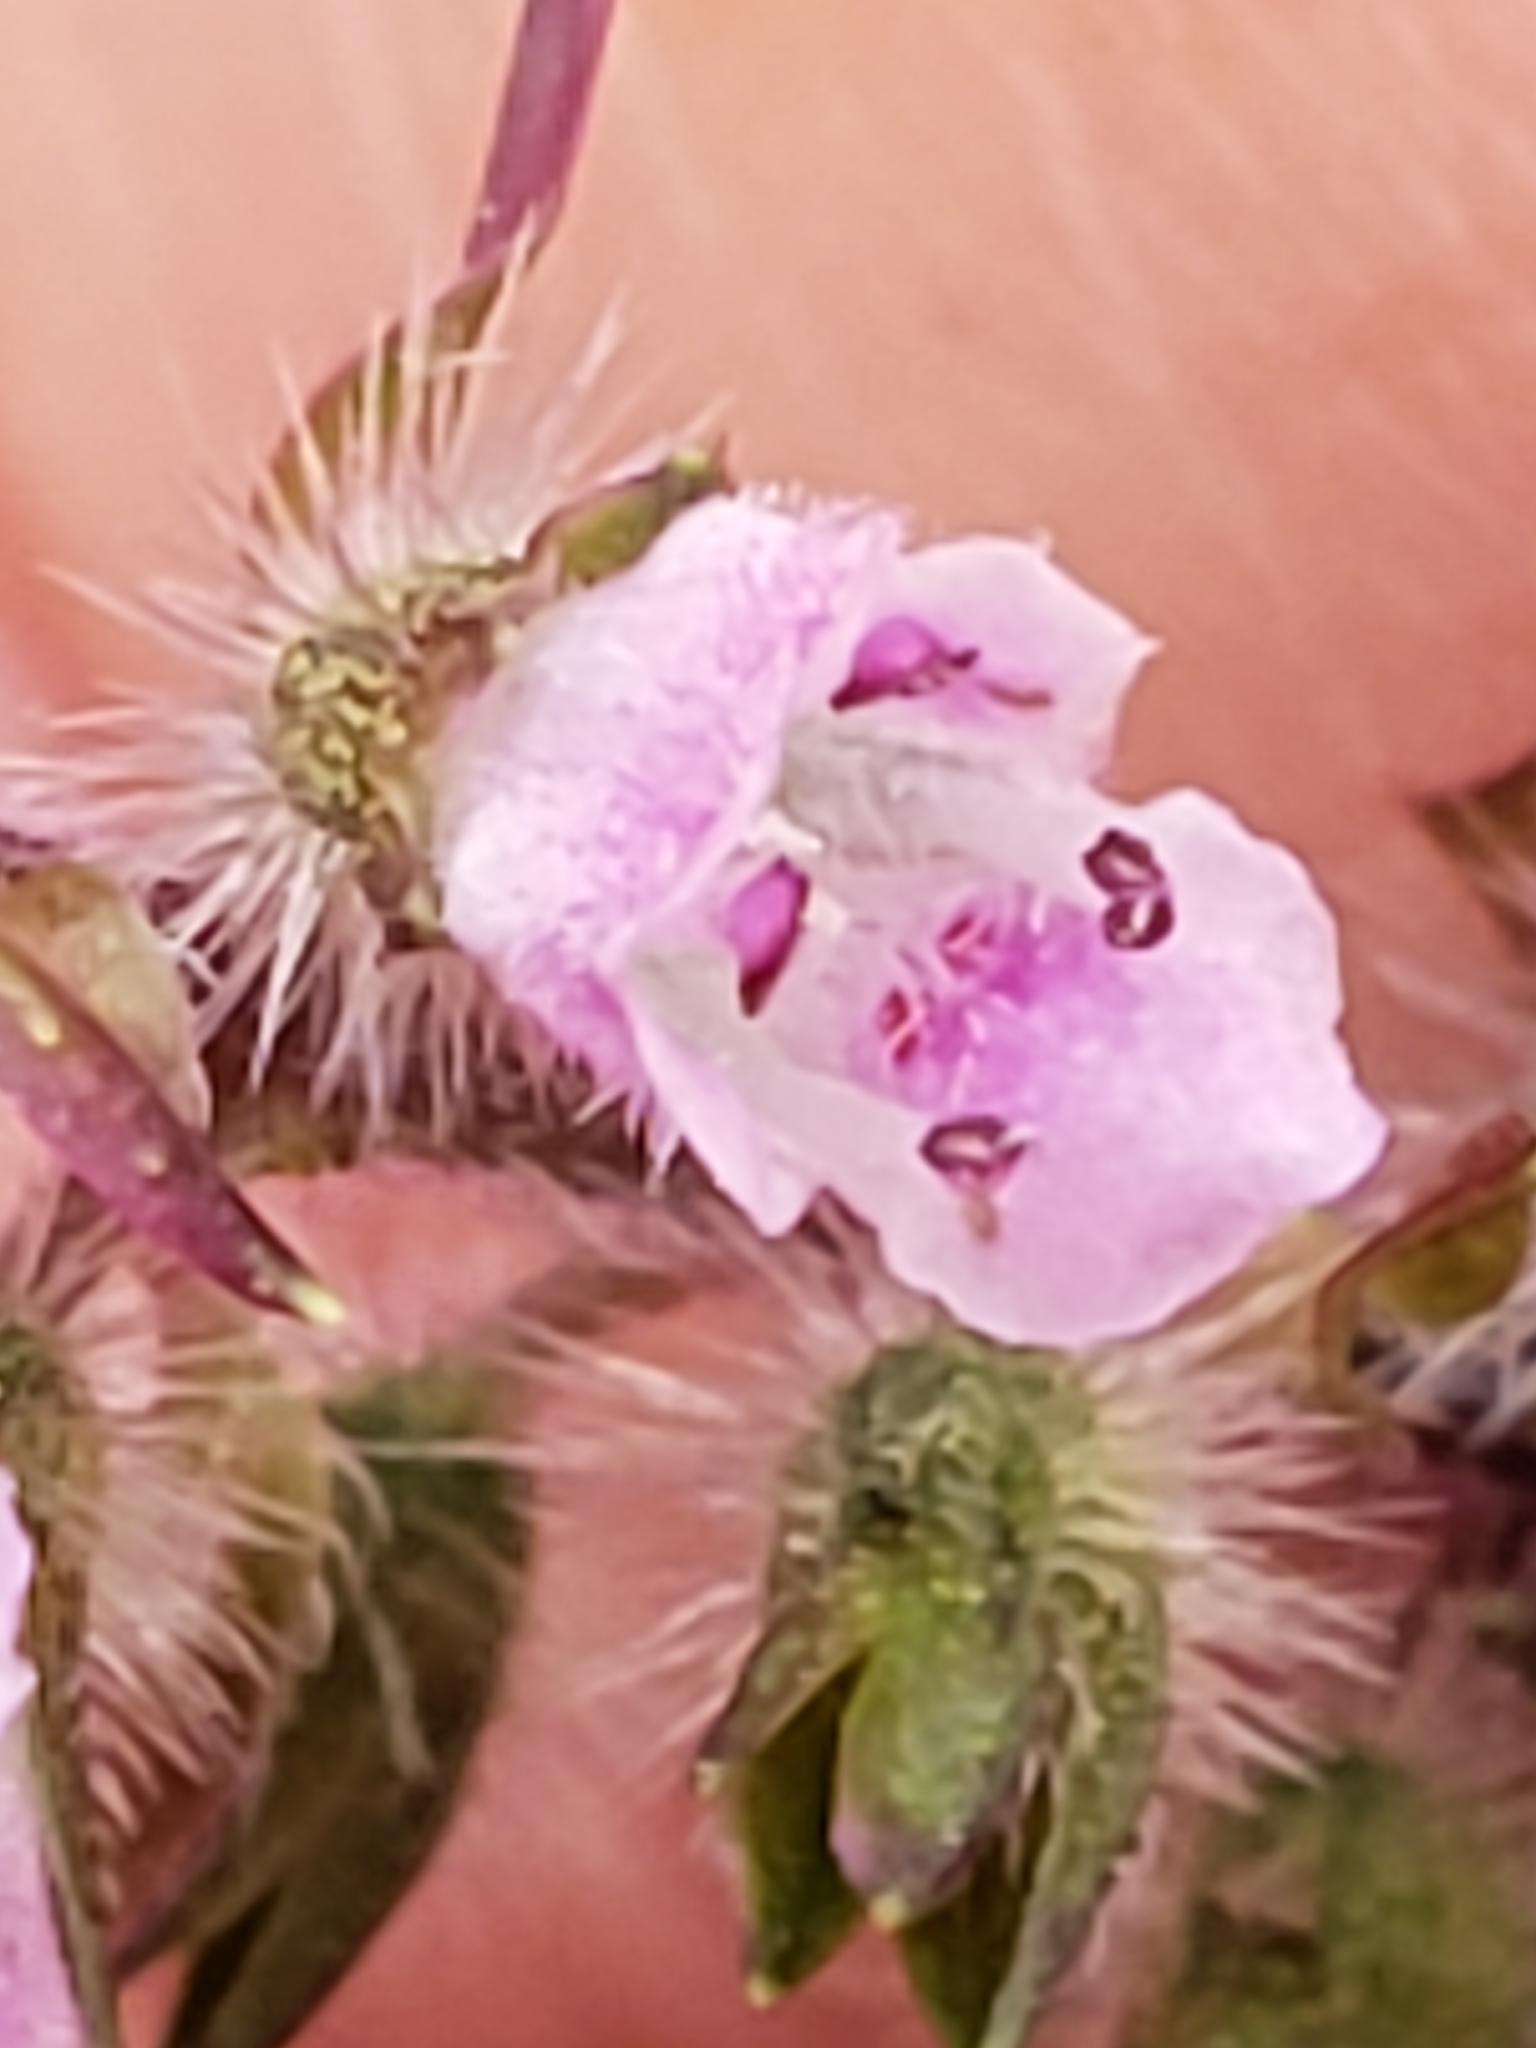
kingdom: Plantae
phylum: Tracheophyta
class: Magnoliopsida
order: Lamiales
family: Lamiaceae
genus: Perilla
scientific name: Perilla frutescens
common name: Perilla
